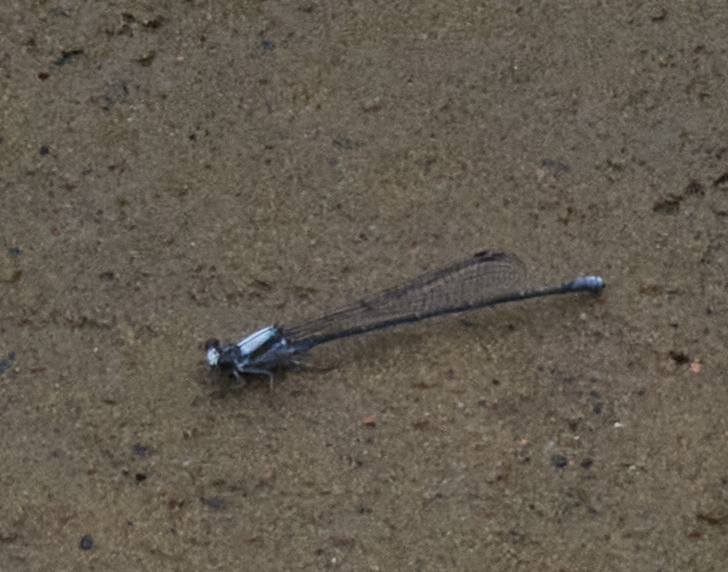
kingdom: Animalia
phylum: Arthropoda
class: Insecta
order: Odonata
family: Coenagrionidae
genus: Argia
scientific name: Argia moesta
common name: Powdered dancer
